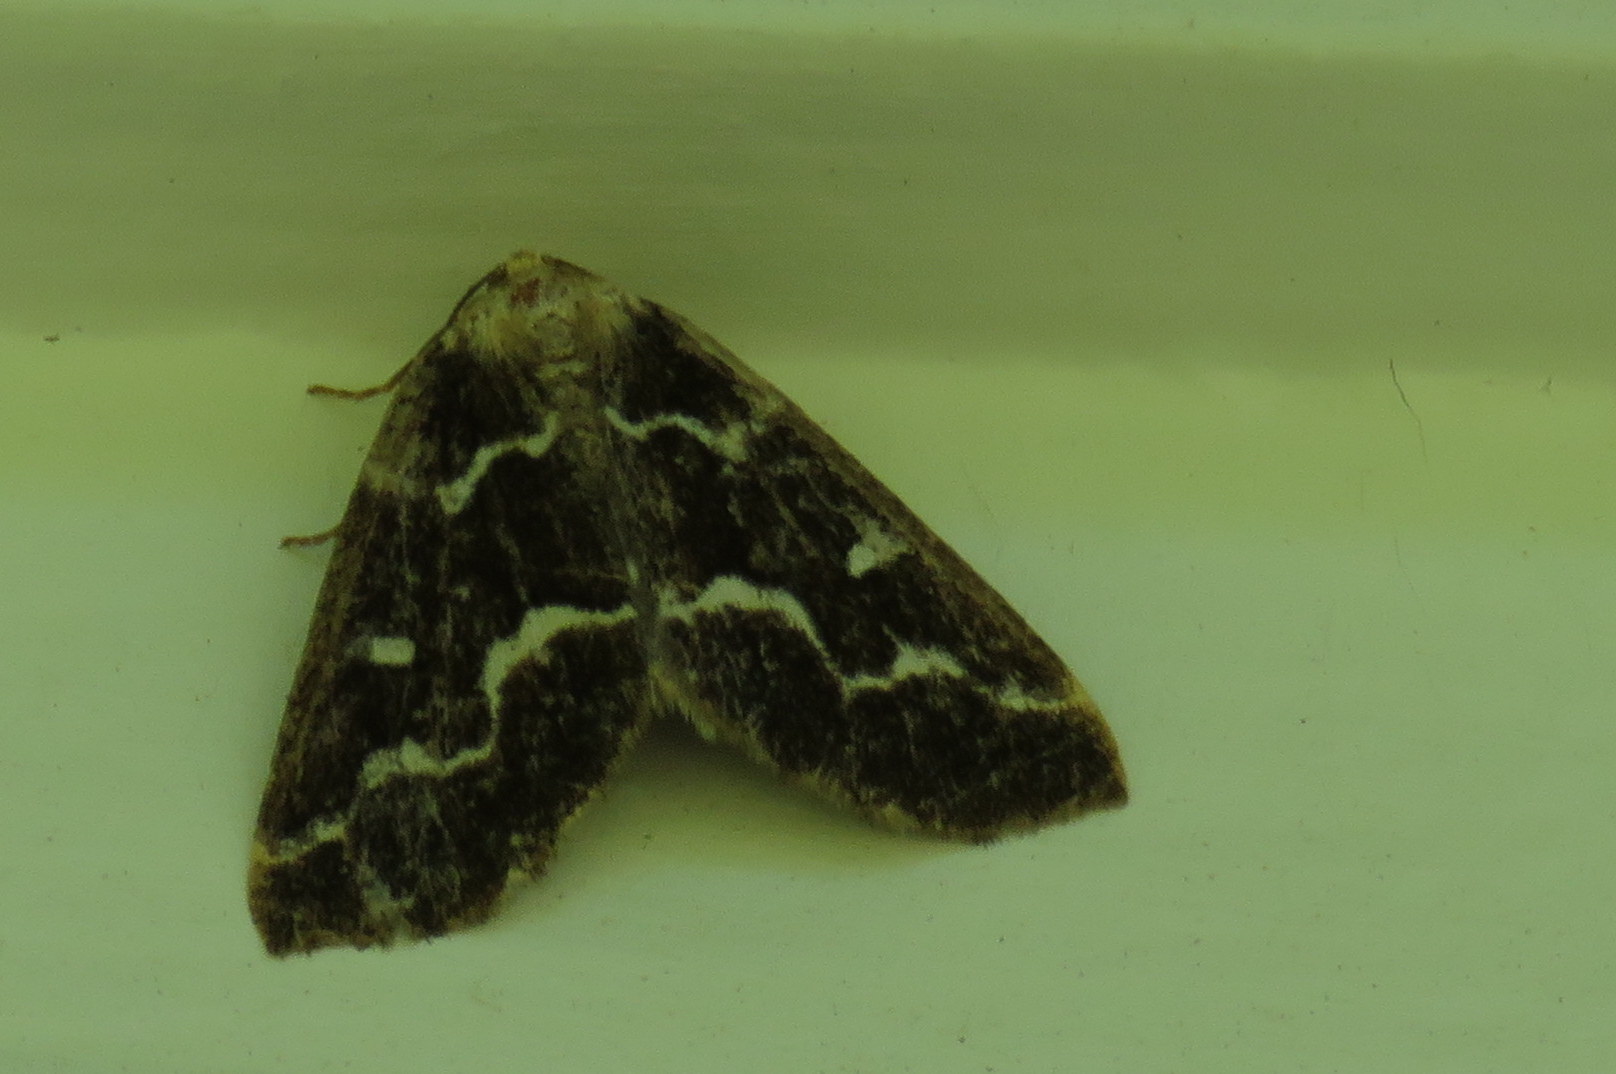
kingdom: Animalia
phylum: Arthropoda
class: Insecta
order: Lepidoptera
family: Geometridae
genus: Caripeta
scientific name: Caripeta divisata
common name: Gray spruce looper
